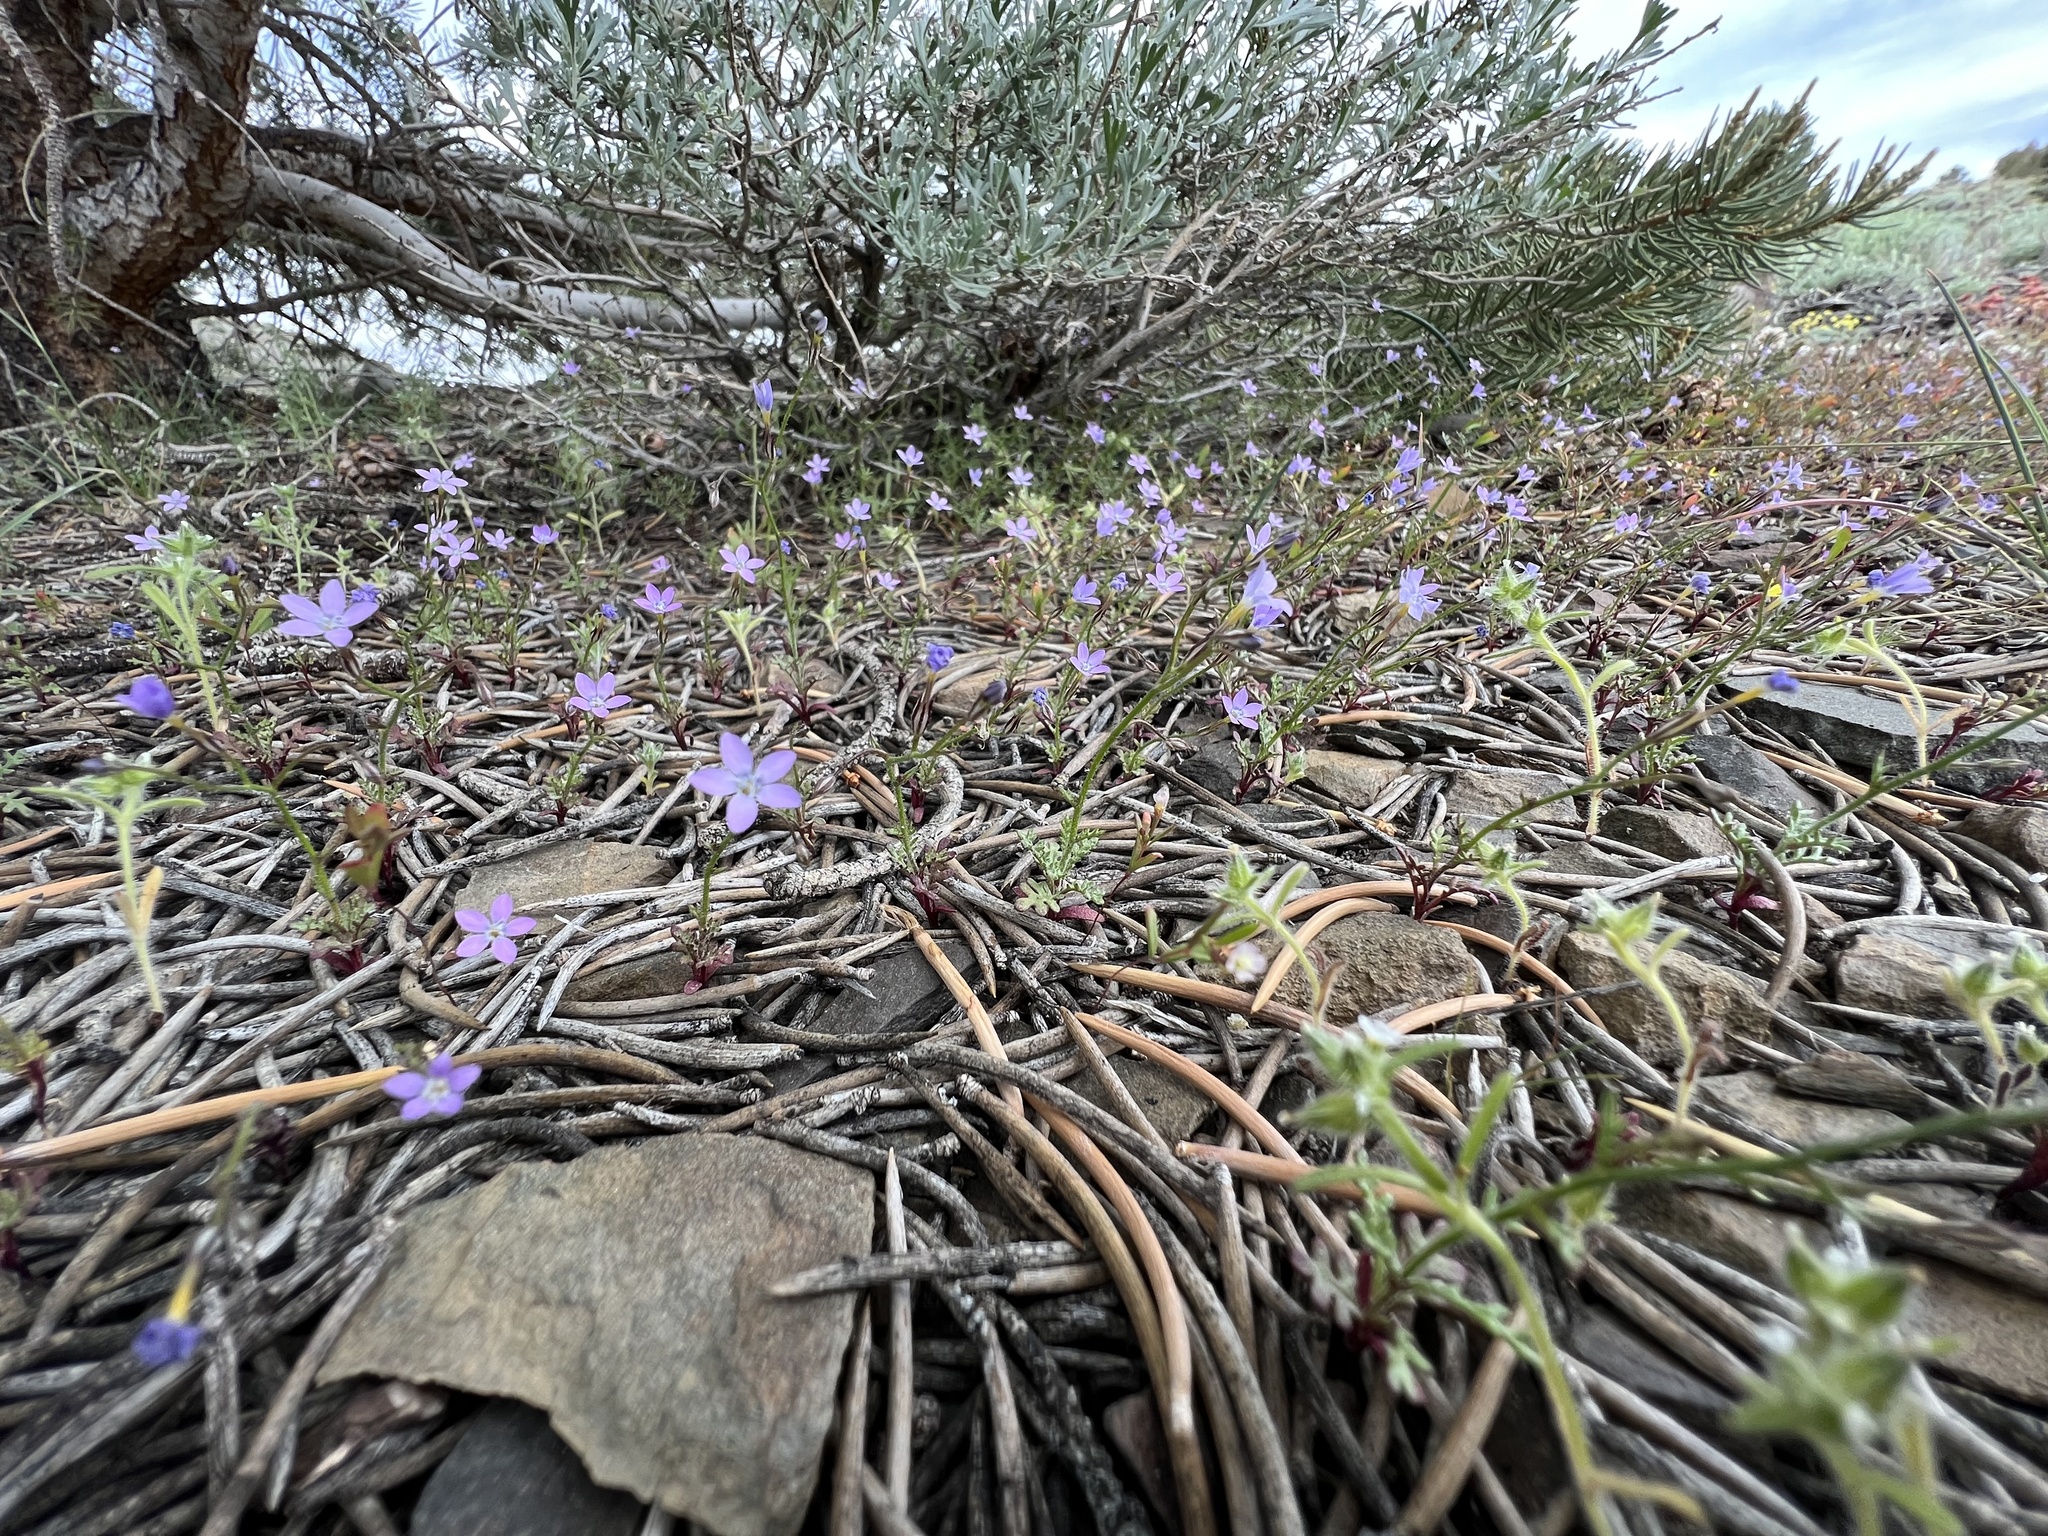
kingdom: Plantae
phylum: Tracheophyta
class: Magnoliopsida
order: Ericales
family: Polemoniaceae
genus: Gilia
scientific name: Gilia ophthalmoides
